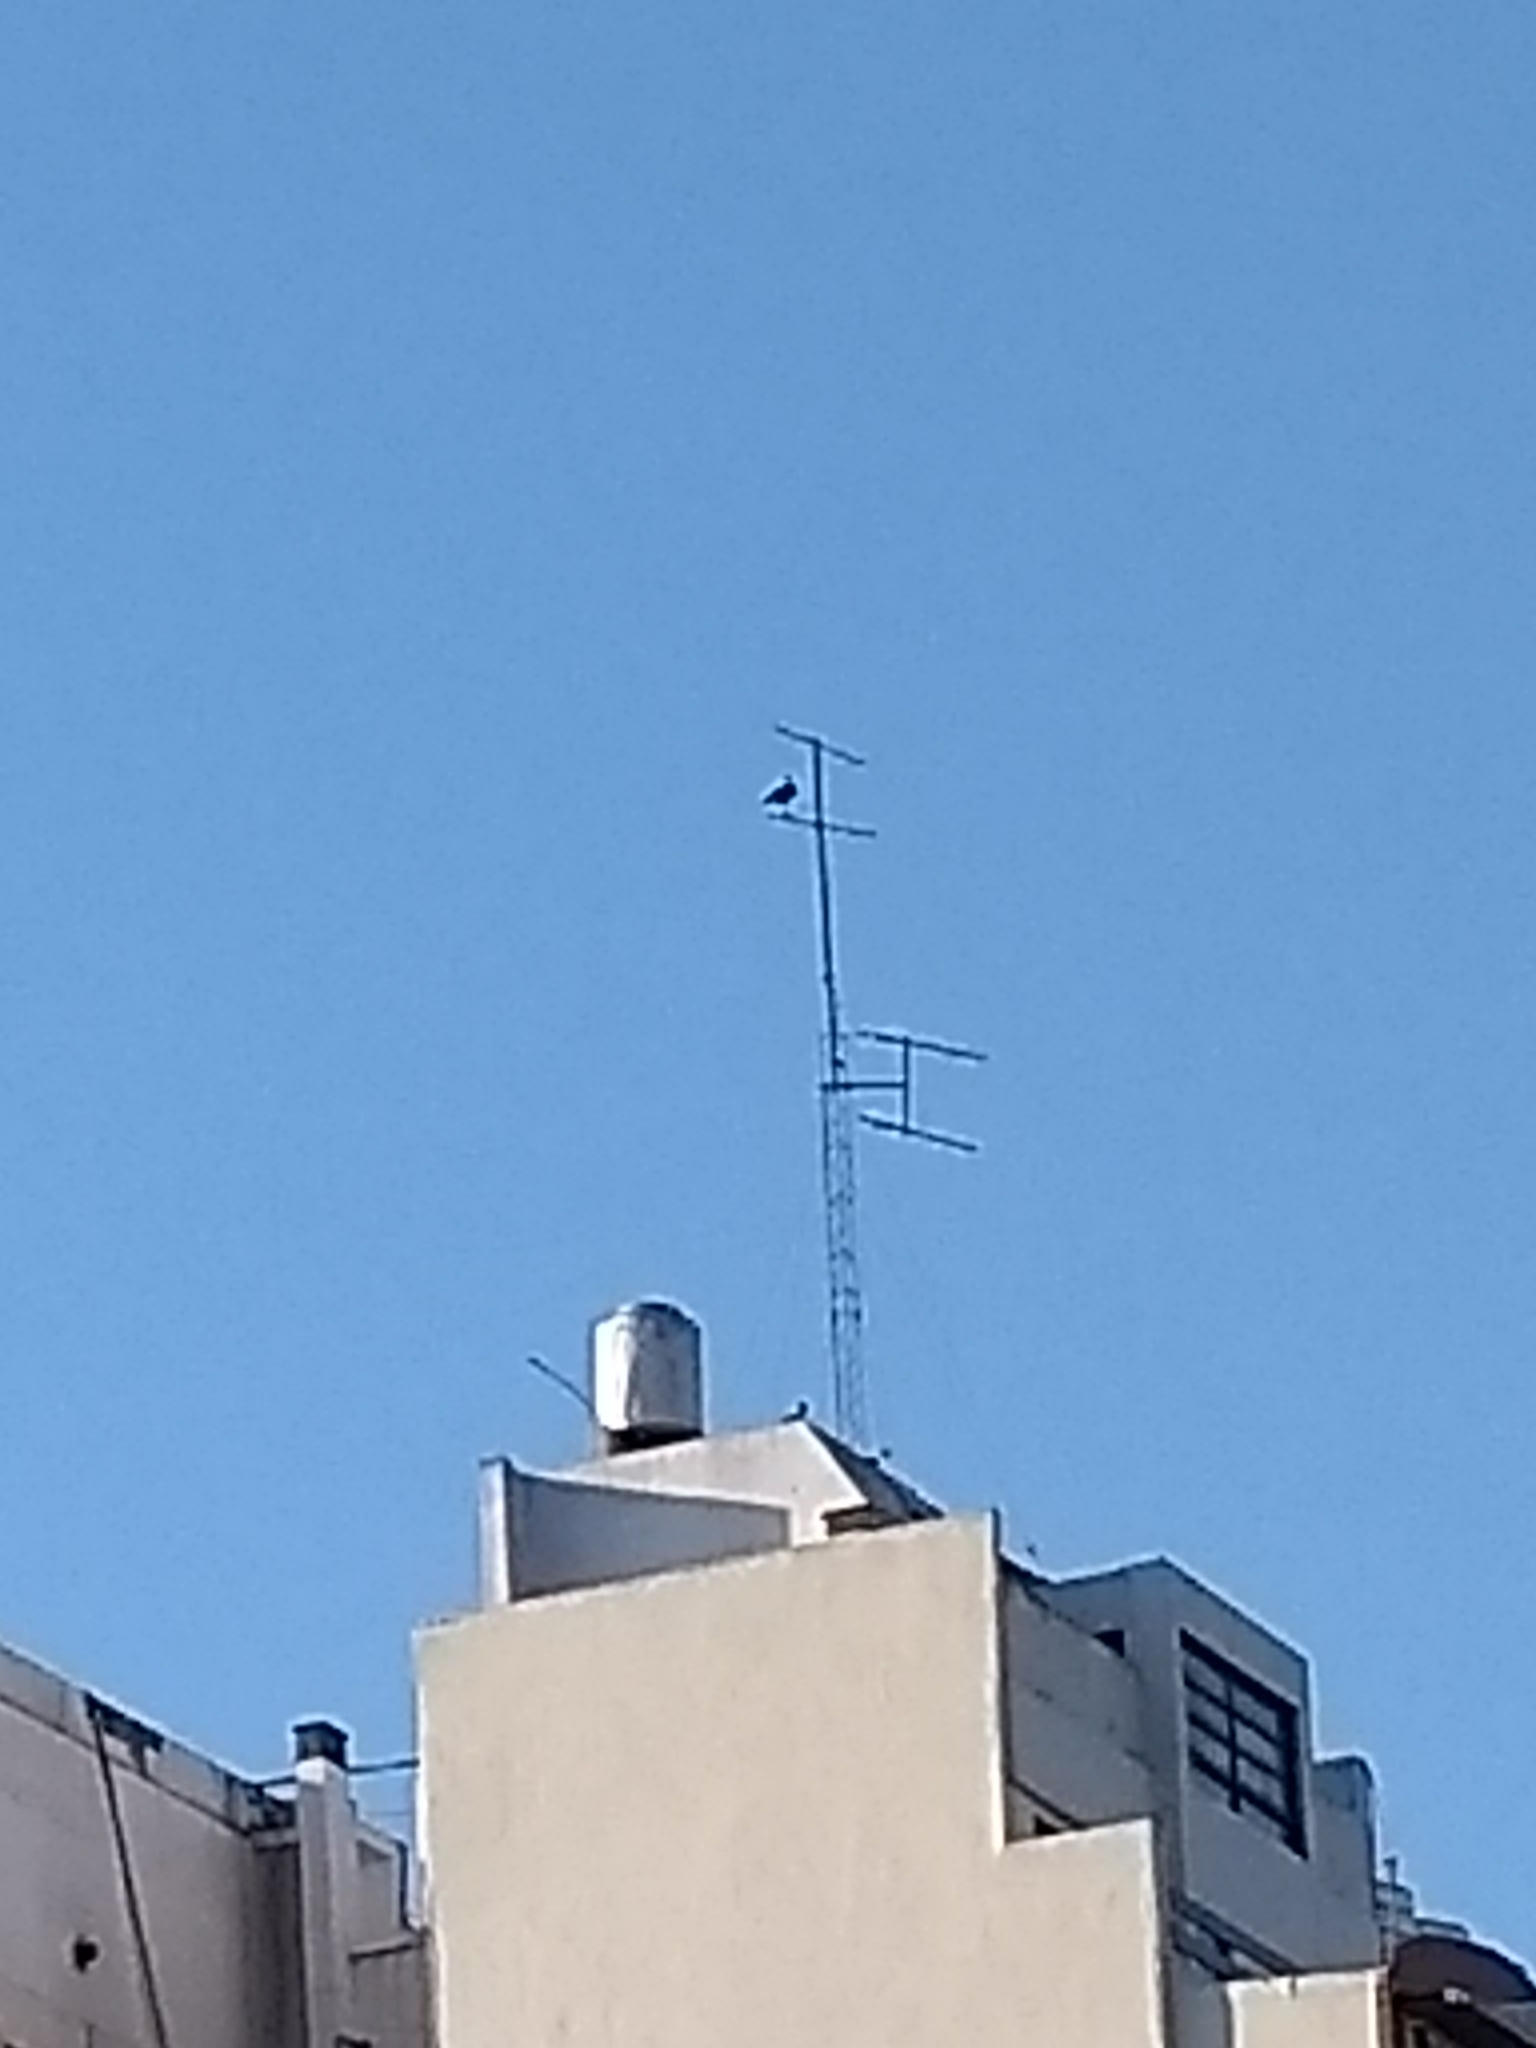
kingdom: Animalia
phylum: Chordata
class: Aves
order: Falconiformes
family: Falconidae
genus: Caracara
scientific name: Caracara plancus
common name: Southern caracara
